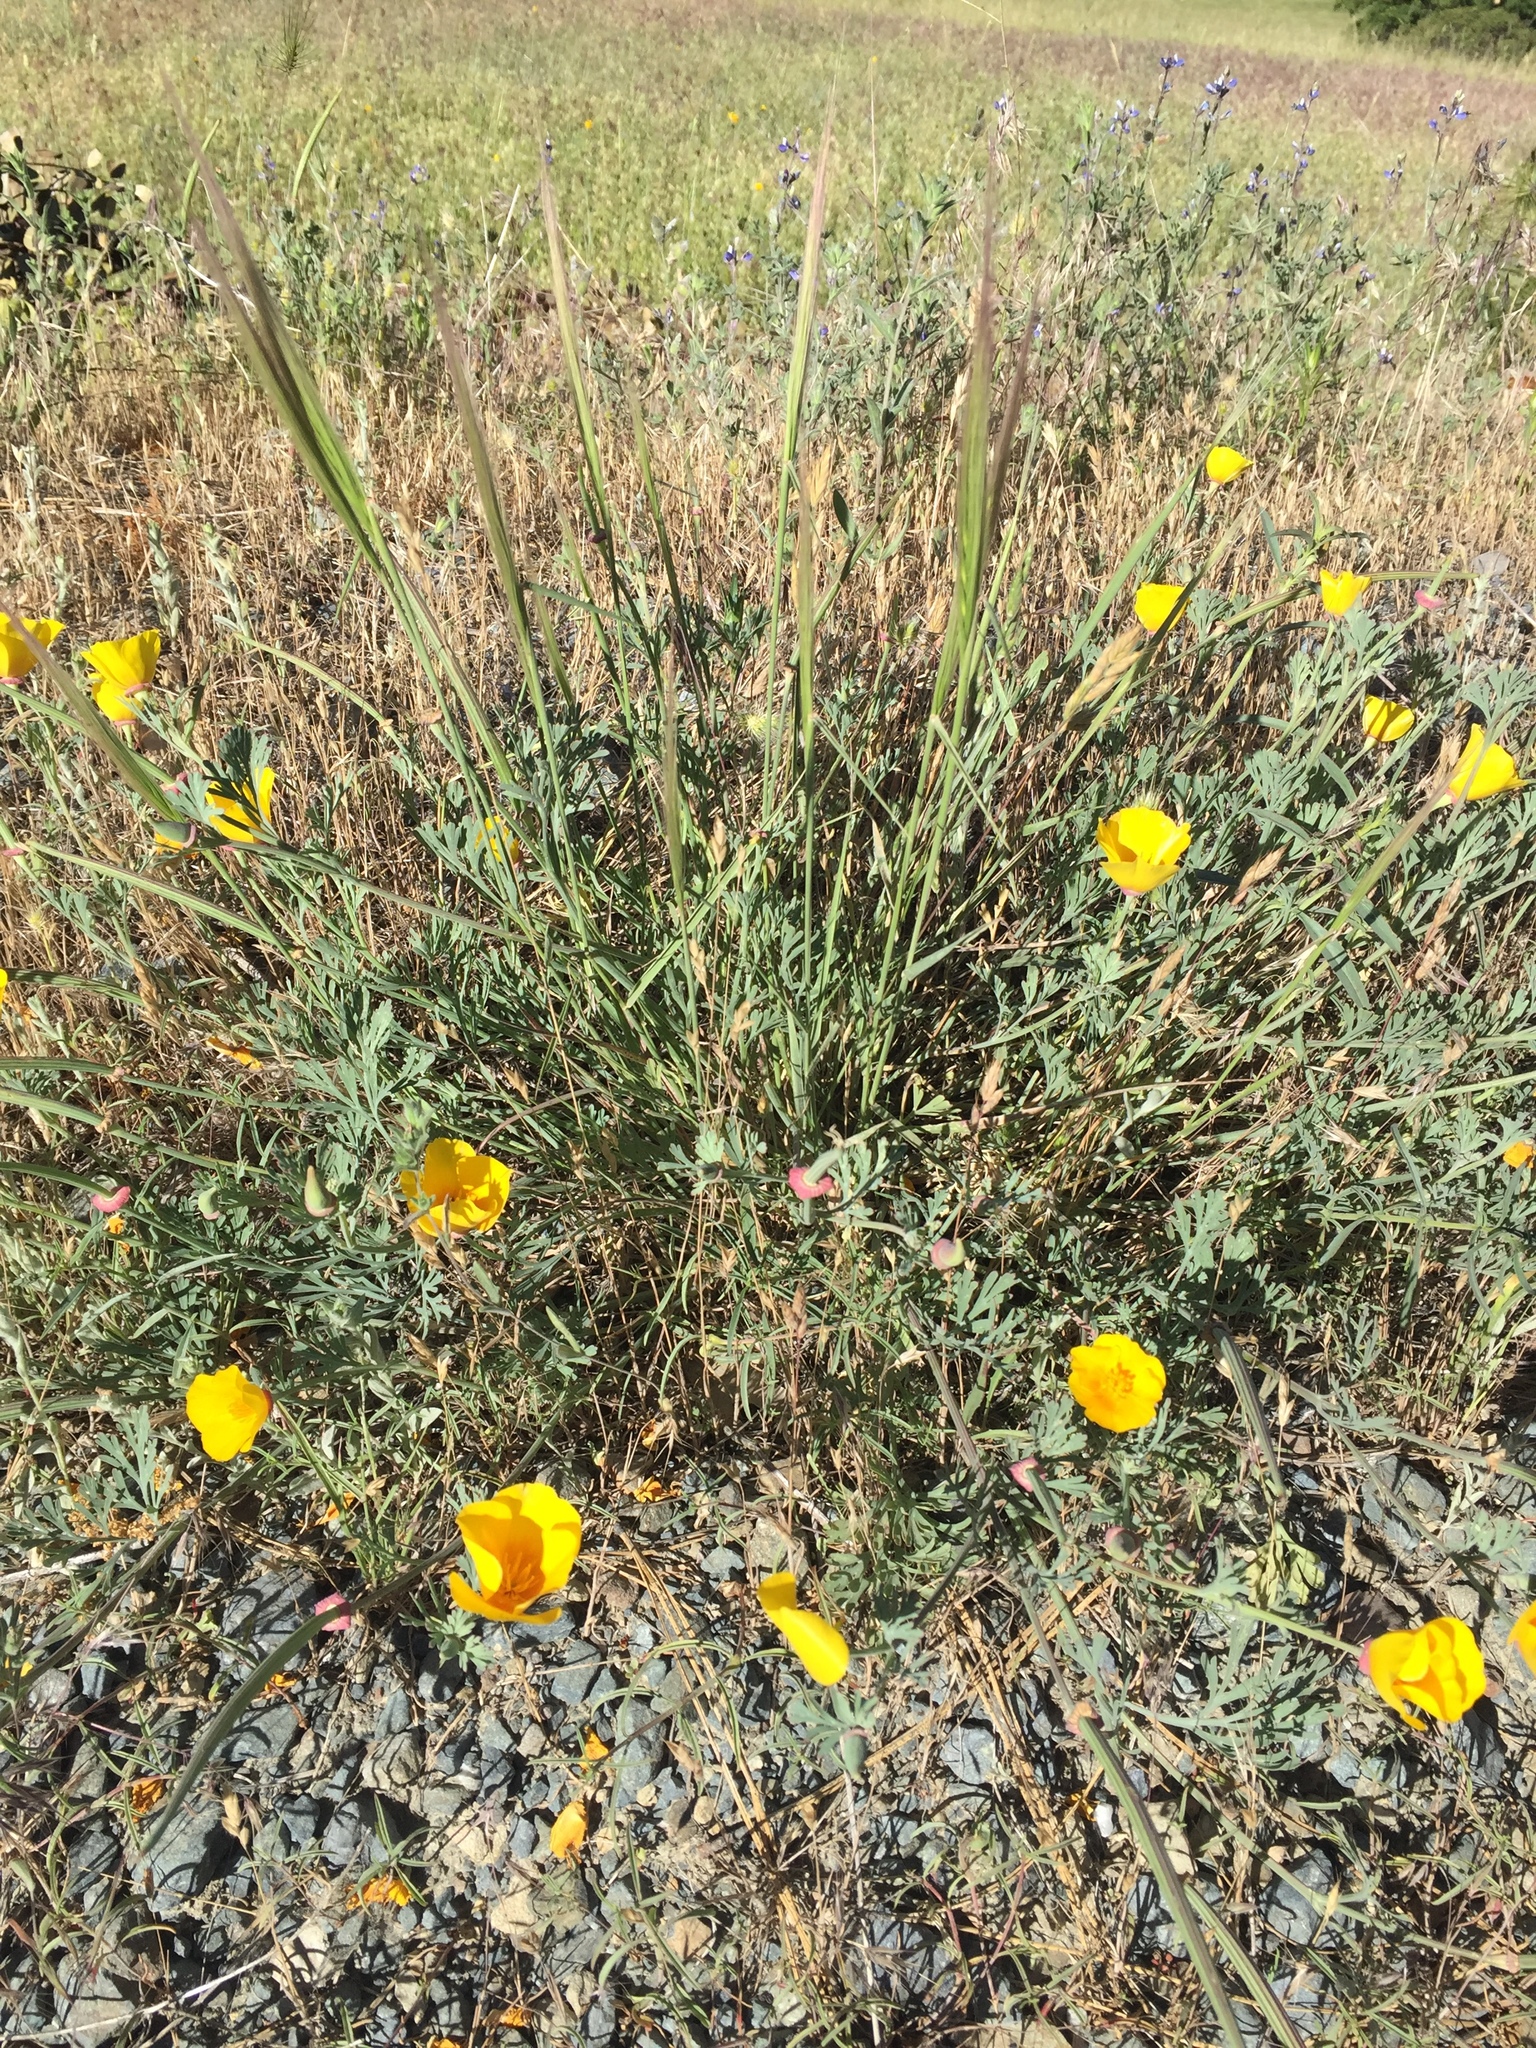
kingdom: Plantae
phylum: Tracheophyta
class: Magnoliopsida
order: Ranunculales
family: Papaveraceae
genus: Eschscholzia
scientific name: Eschscholzia californica
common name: California poppy
